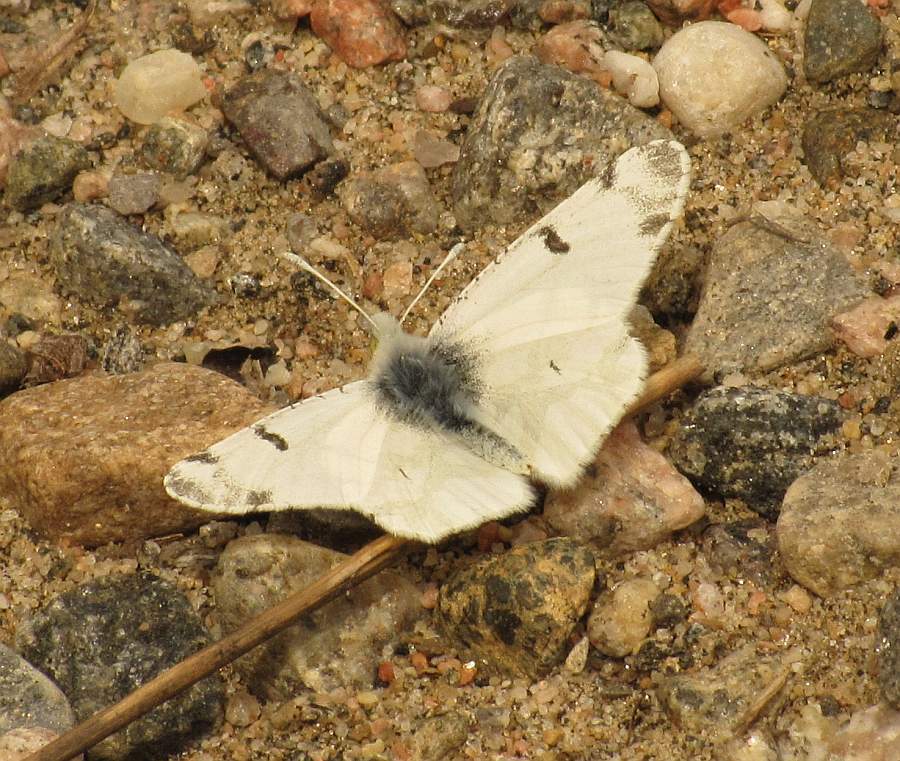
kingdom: Animalia
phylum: Arthropoda
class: Insecta
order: Lepidoptera
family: Pieridae
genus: Euchloe
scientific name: Euchloe olympia
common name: Olympia
